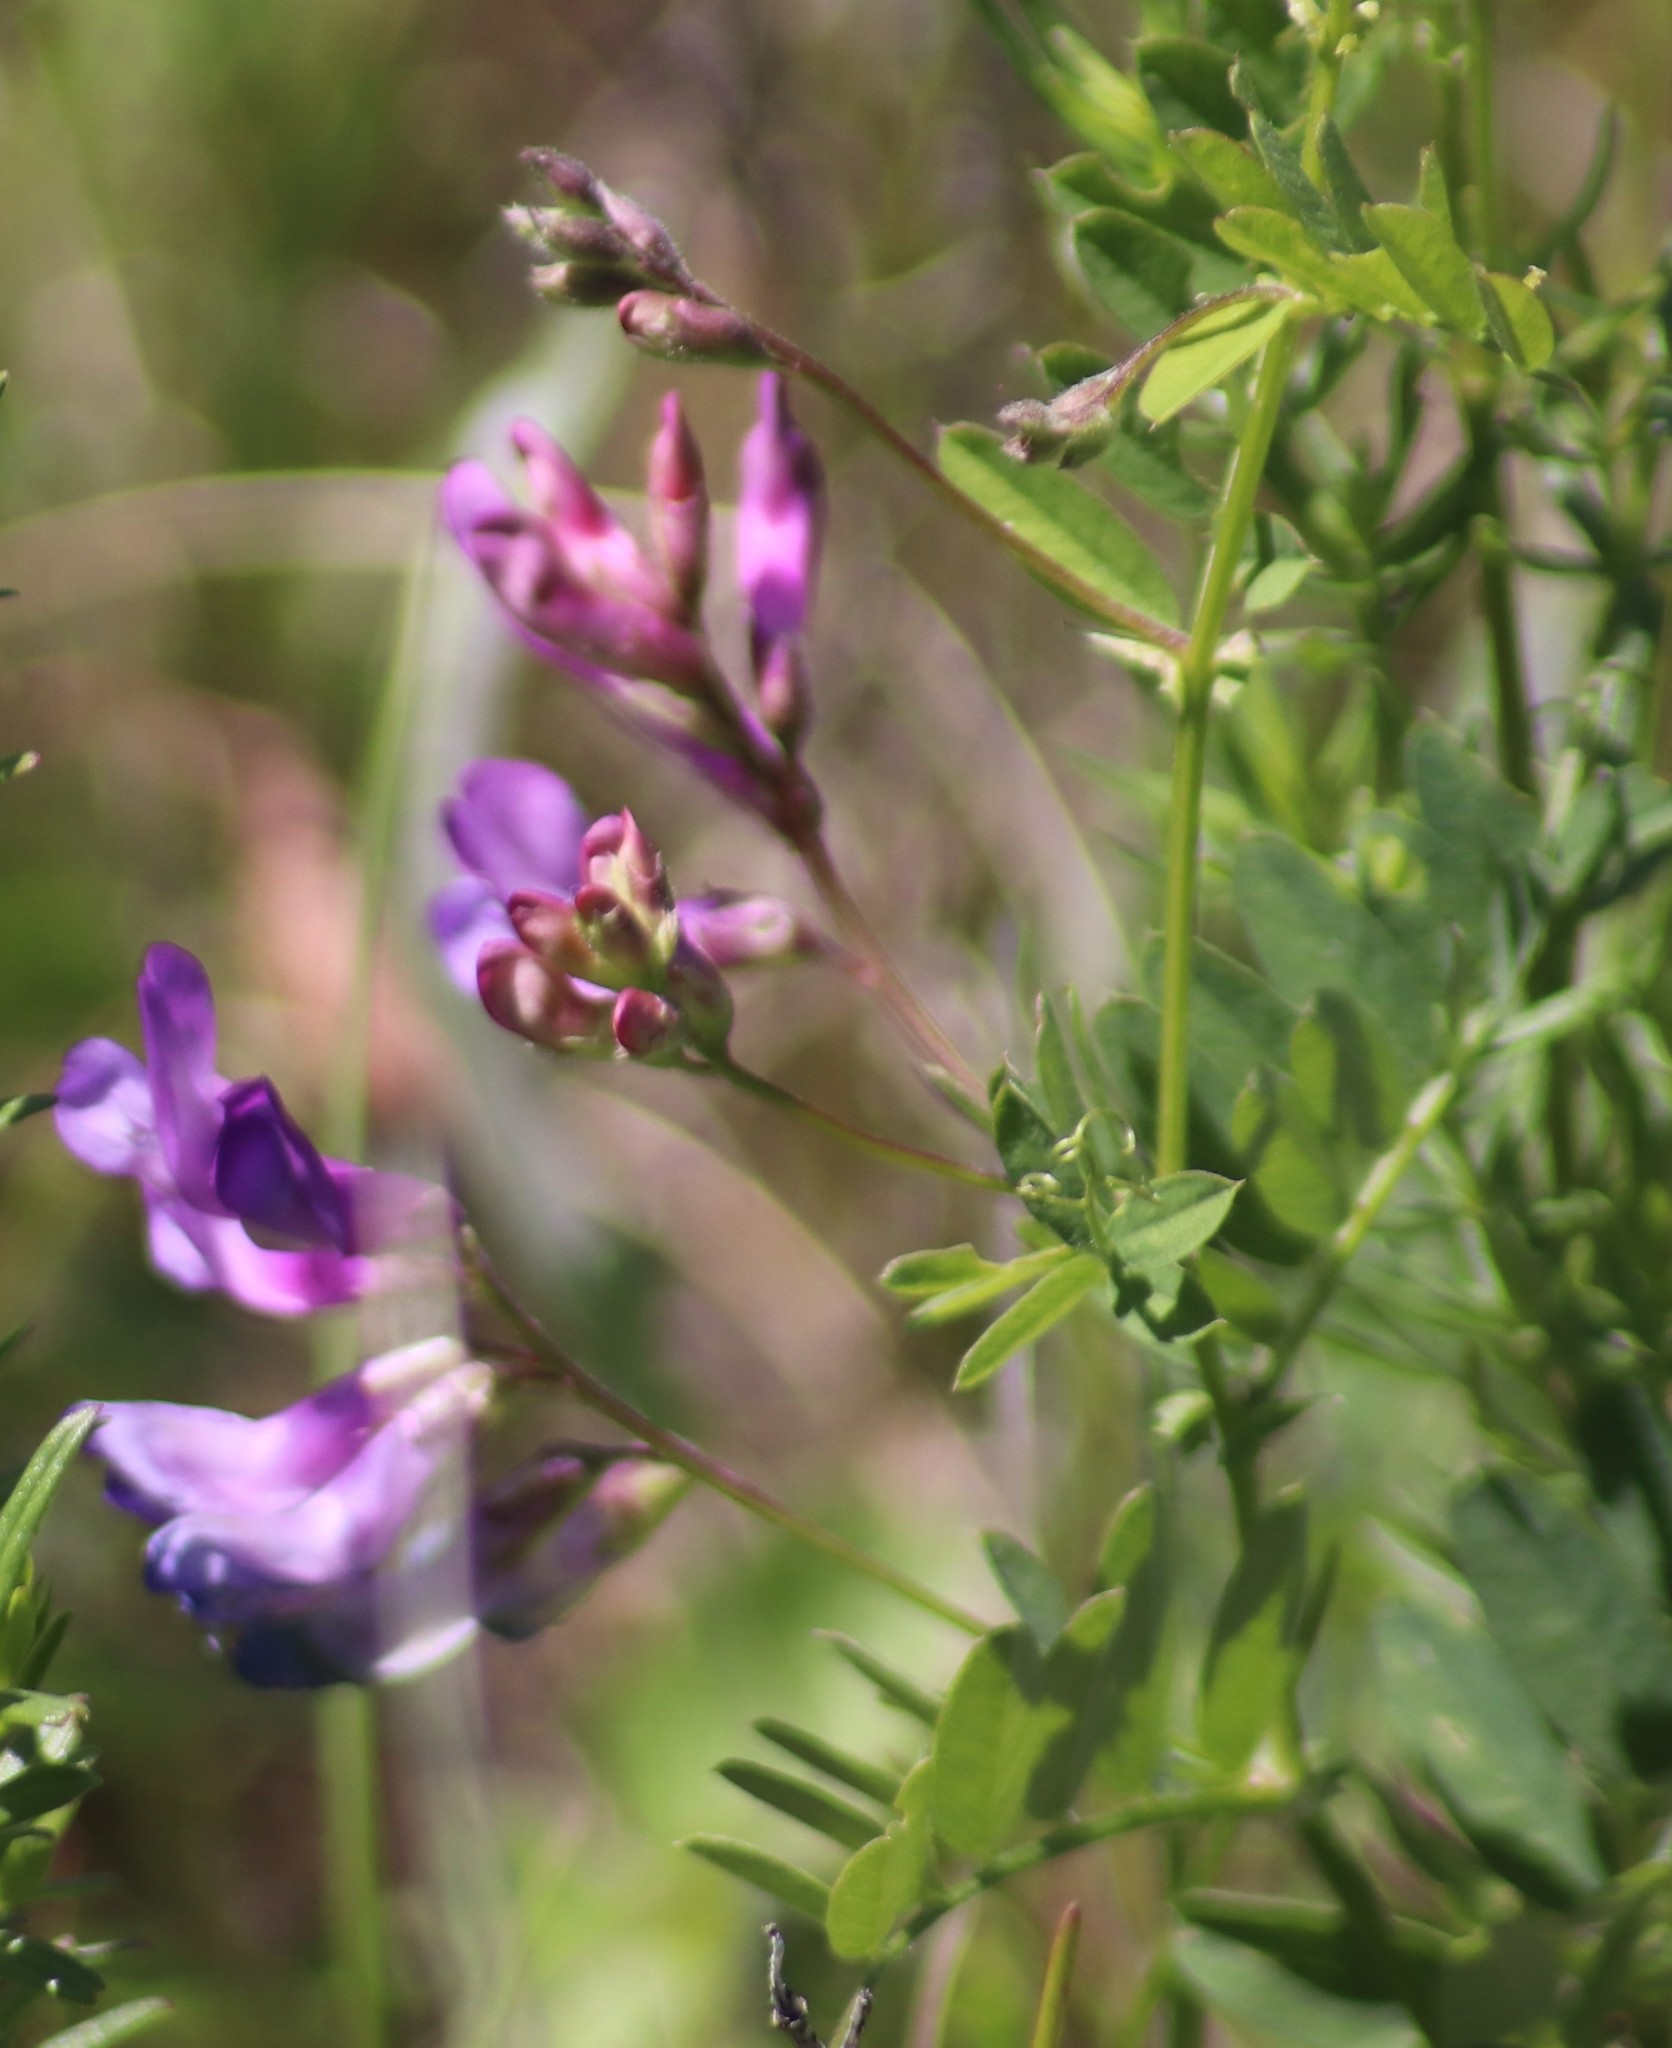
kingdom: Plantae
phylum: Tracheophyta
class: Magnoliopsida
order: Fabales
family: Fabaceae
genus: Vicia
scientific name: Vicia americana
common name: American vetch
